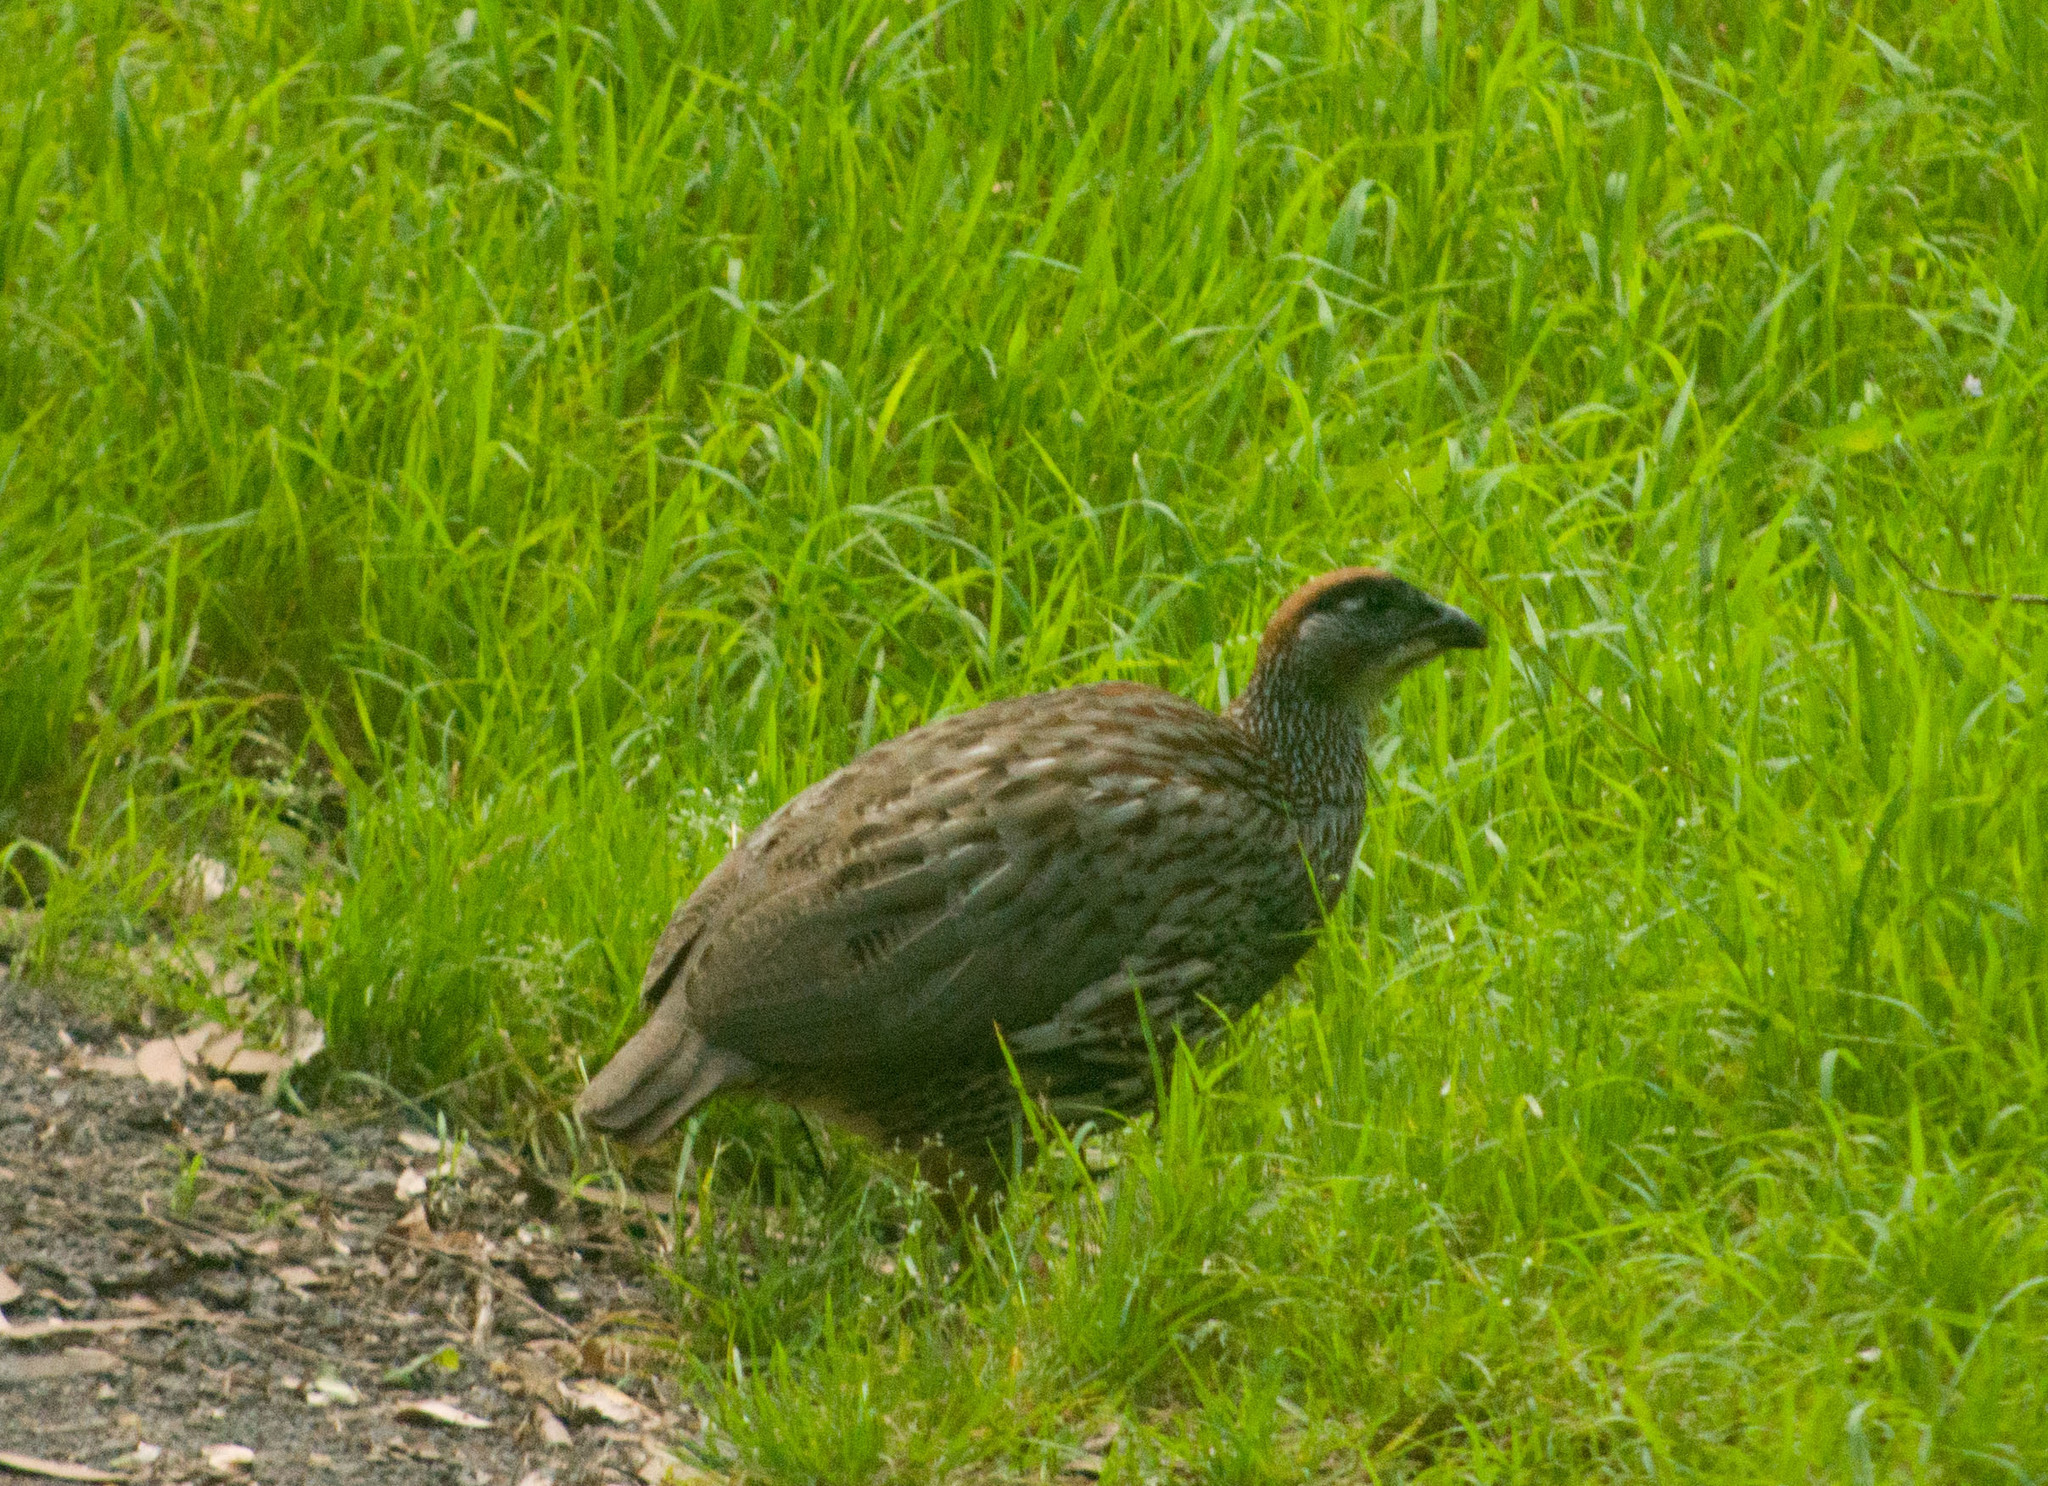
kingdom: Animalia
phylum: Chordata
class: Aves
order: Galliformes
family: Phasianidae
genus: Pternistis
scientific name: Pternistis erckelii
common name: Erckel's francolin
